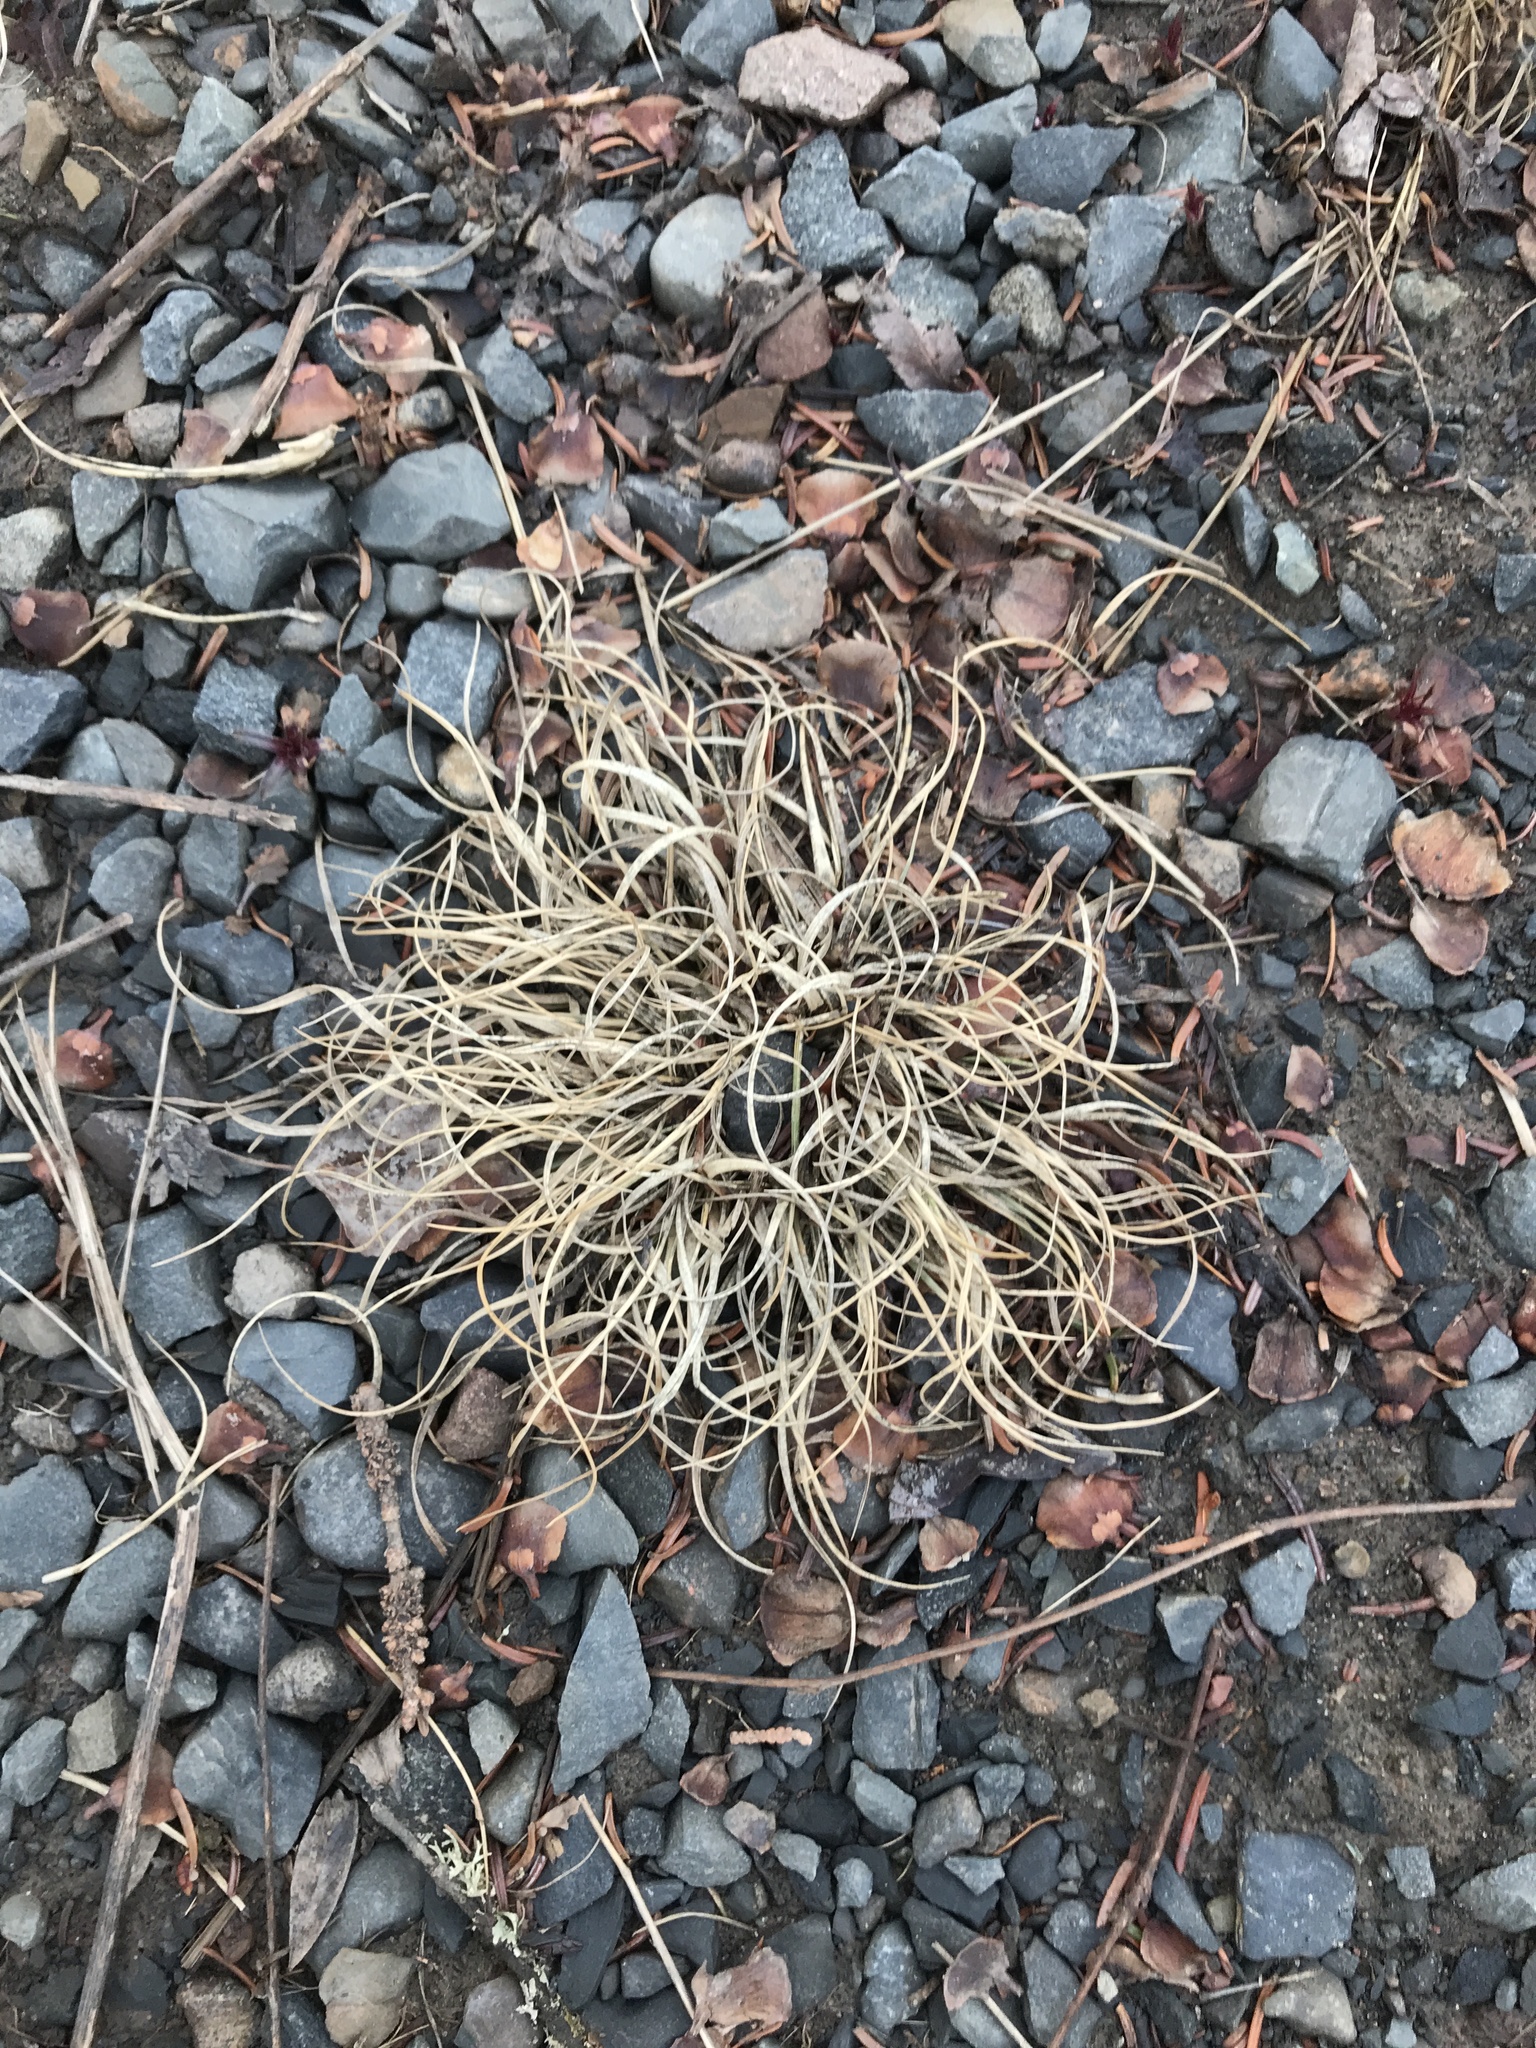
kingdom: Plantae
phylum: Tracheophyta
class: Liliopsida
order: Poales
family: Poaceae
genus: Danthonia
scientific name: Danthonia spicata
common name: Common wild oatgrass
